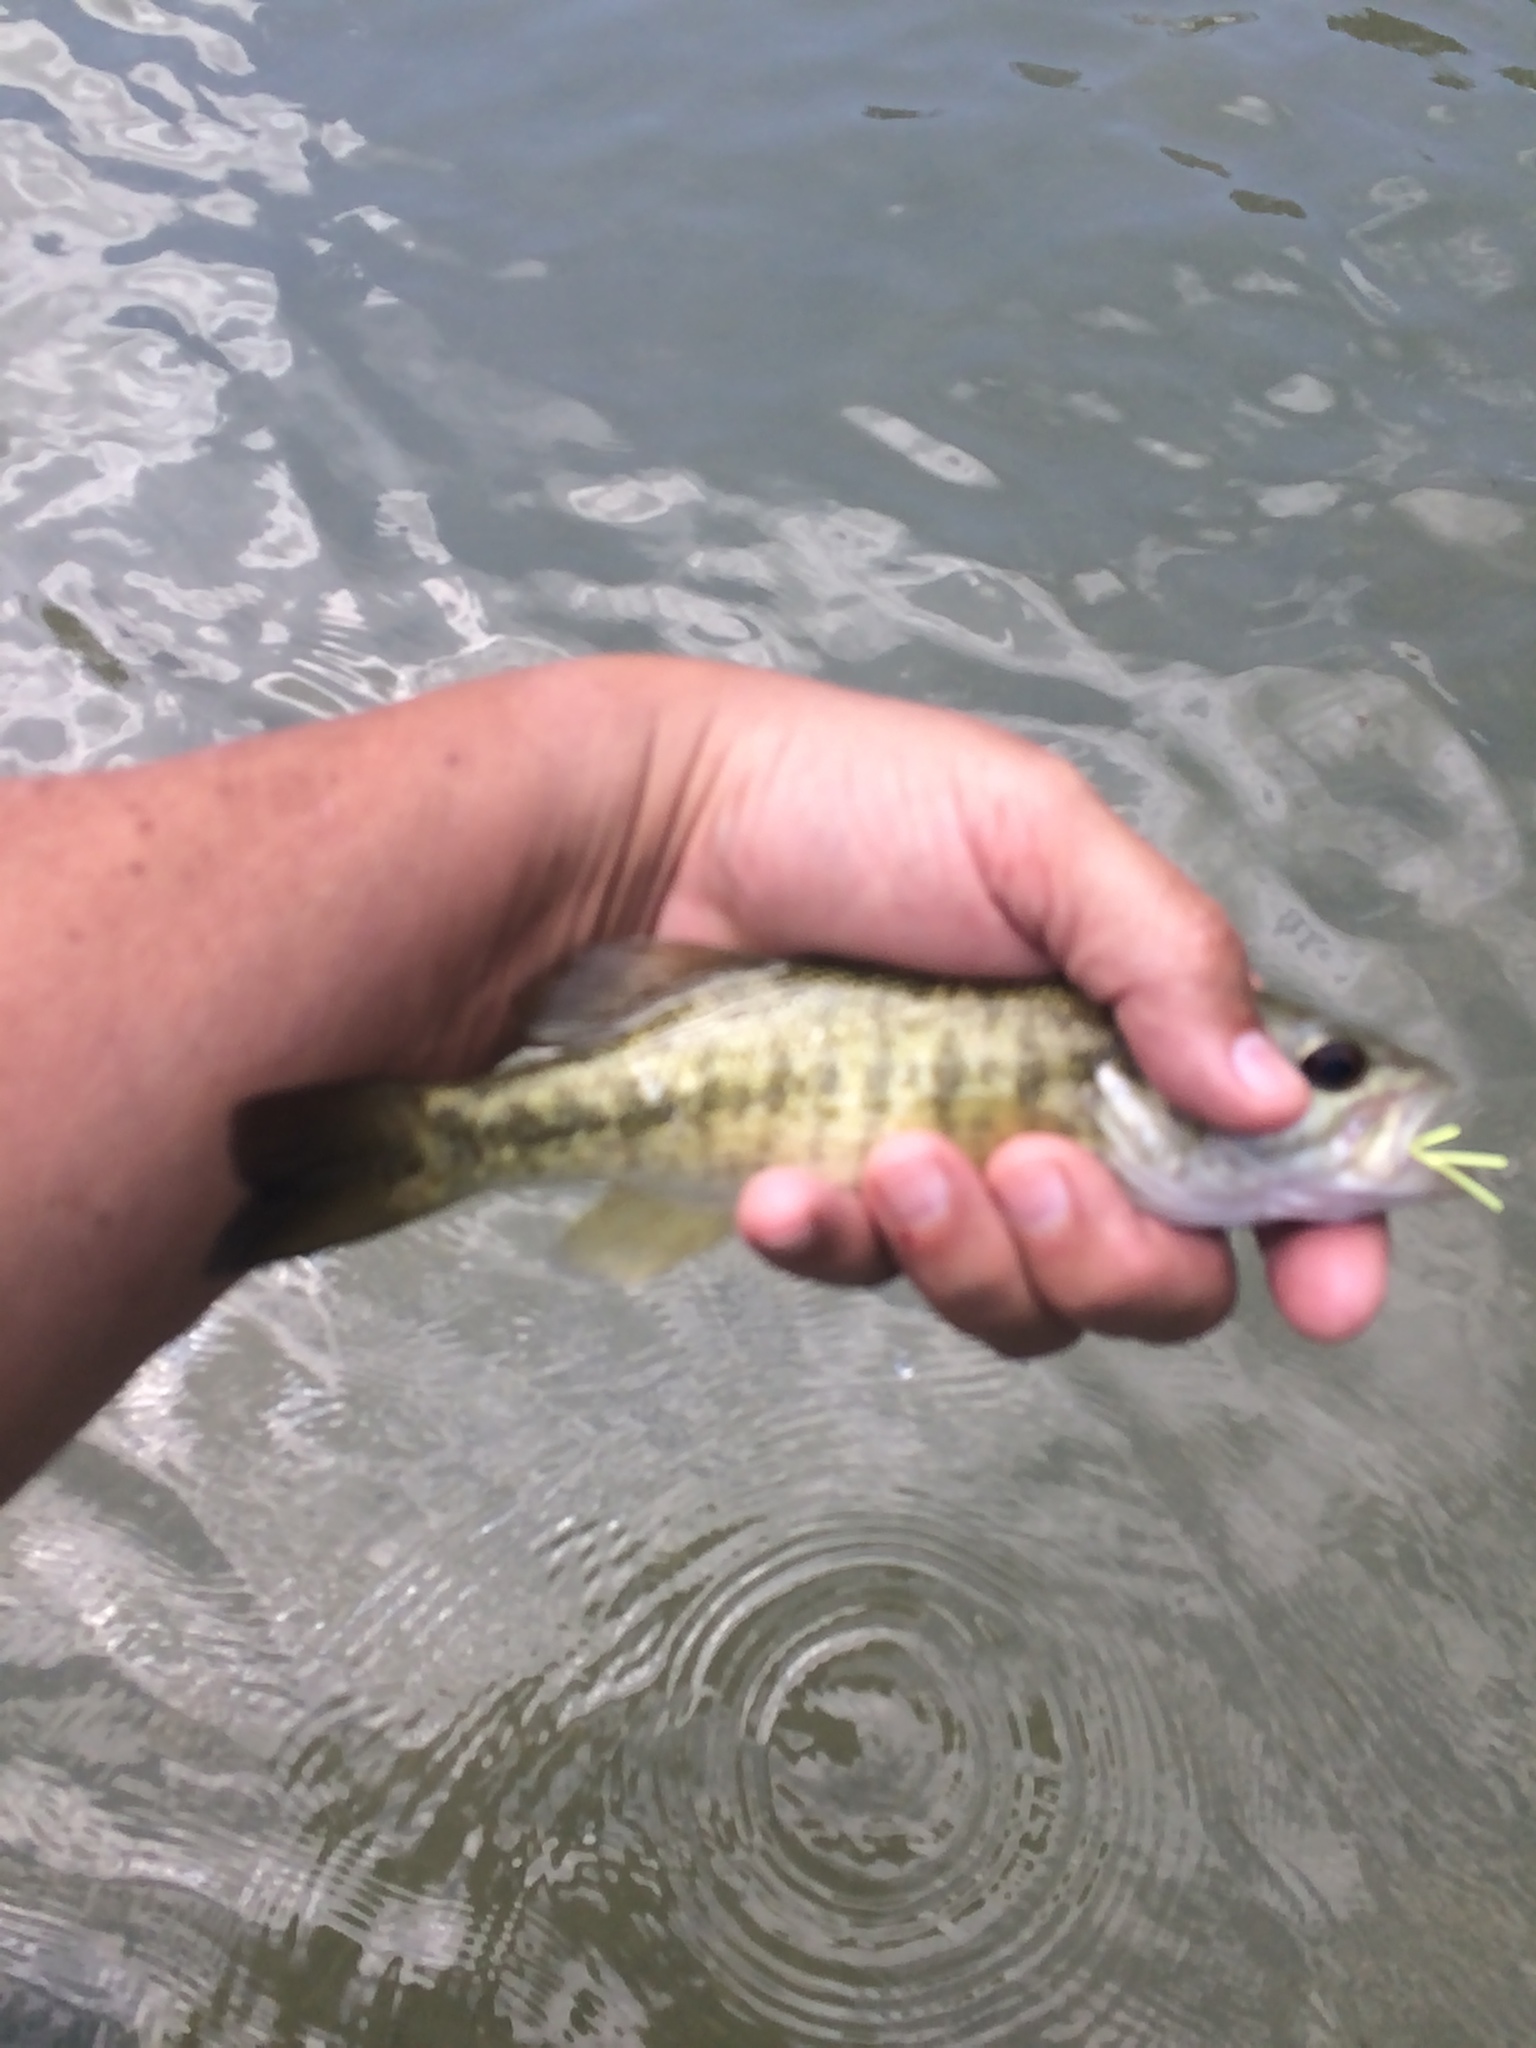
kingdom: Animalia
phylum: Chordata
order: Perciformes
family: Centrarchidae
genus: Micropterus
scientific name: Micropterus treculii
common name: Guadalupe bass
